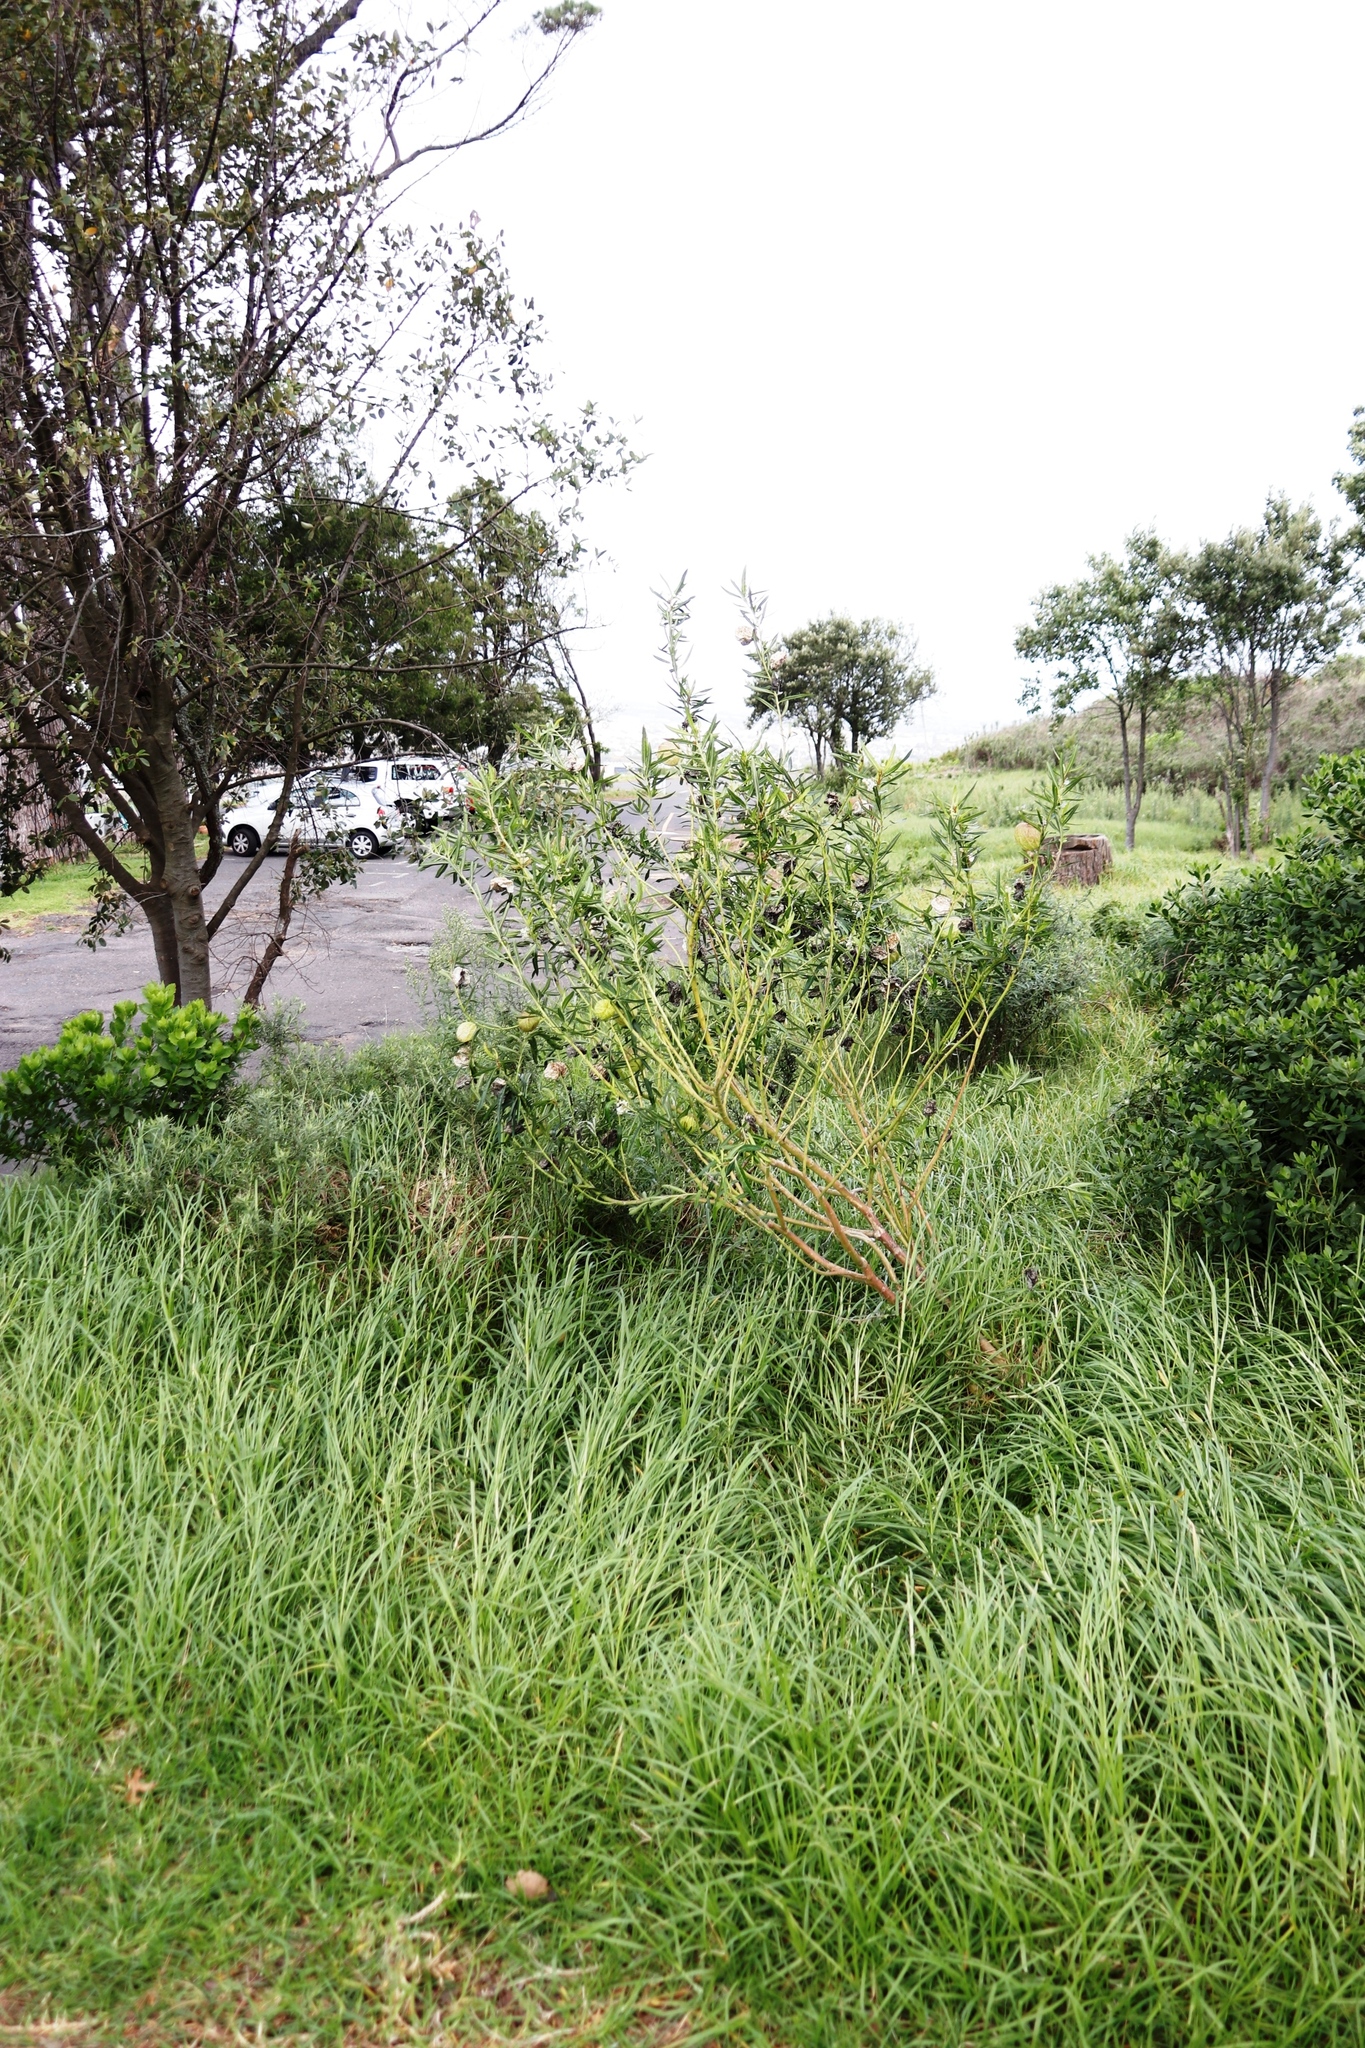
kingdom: Plantae
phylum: Tracheophyta
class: Magnoliopsida
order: Gentianales
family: Apocynaceae
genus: Gomphocarpus
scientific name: Gomphocarpus physocarpus
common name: Balloon cotton bush
